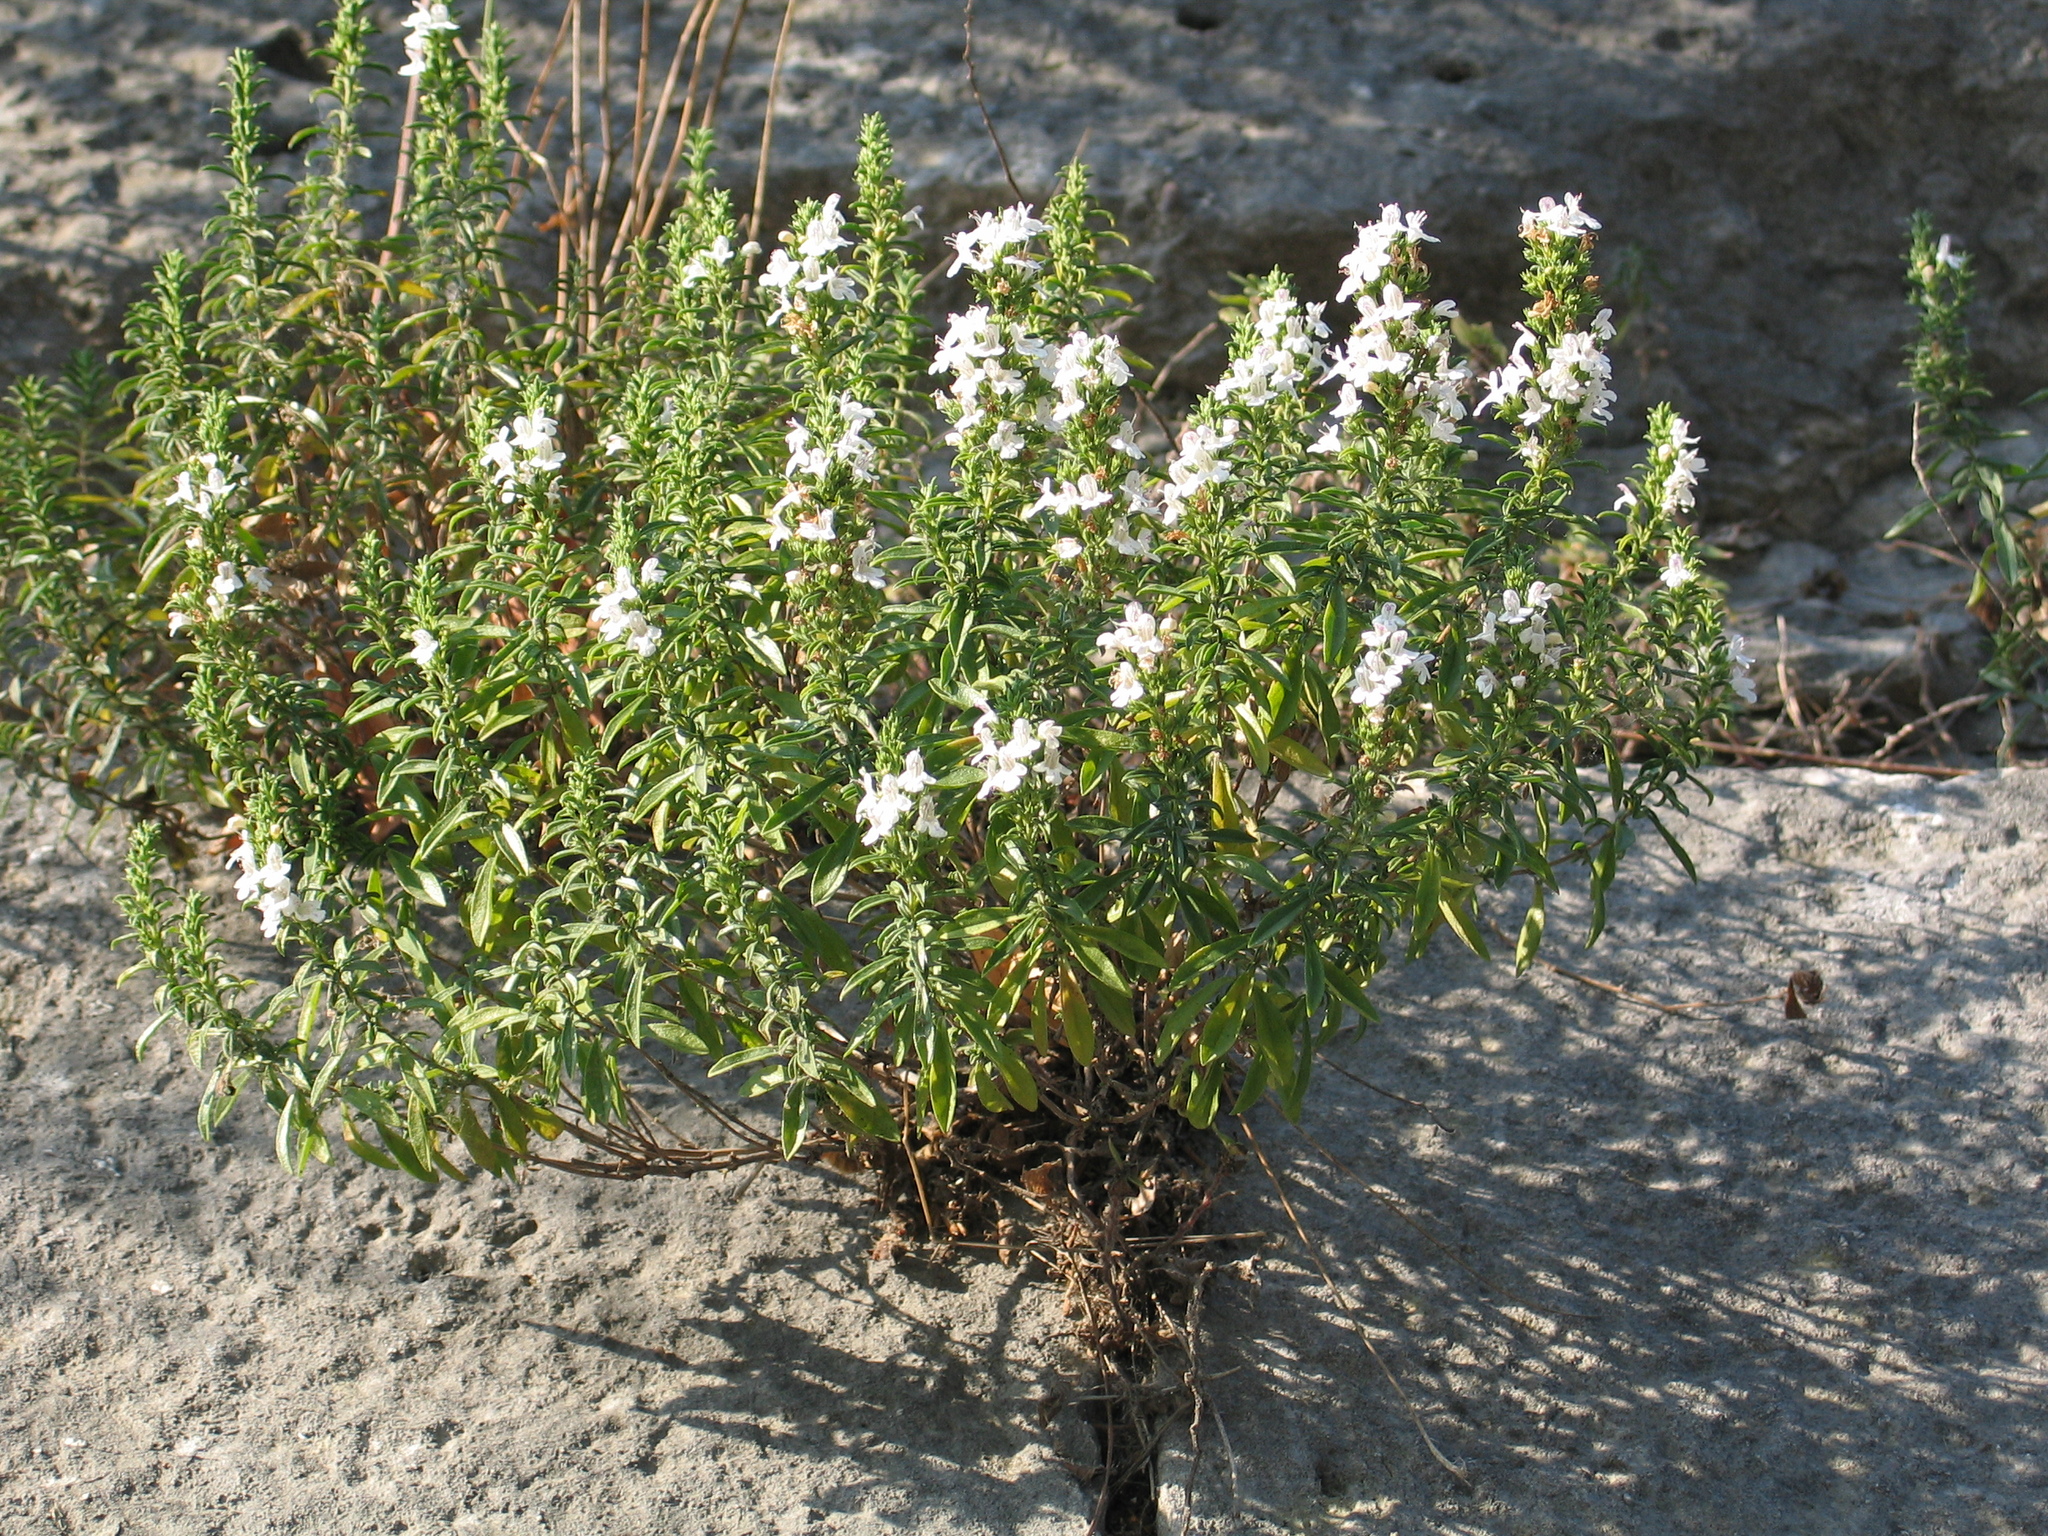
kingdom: Plantae
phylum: Tracheophyta
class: Magnoliopsida
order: Lamiales
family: Lamiaceae
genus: Satureja
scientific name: Satureja montana
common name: Winter savory
